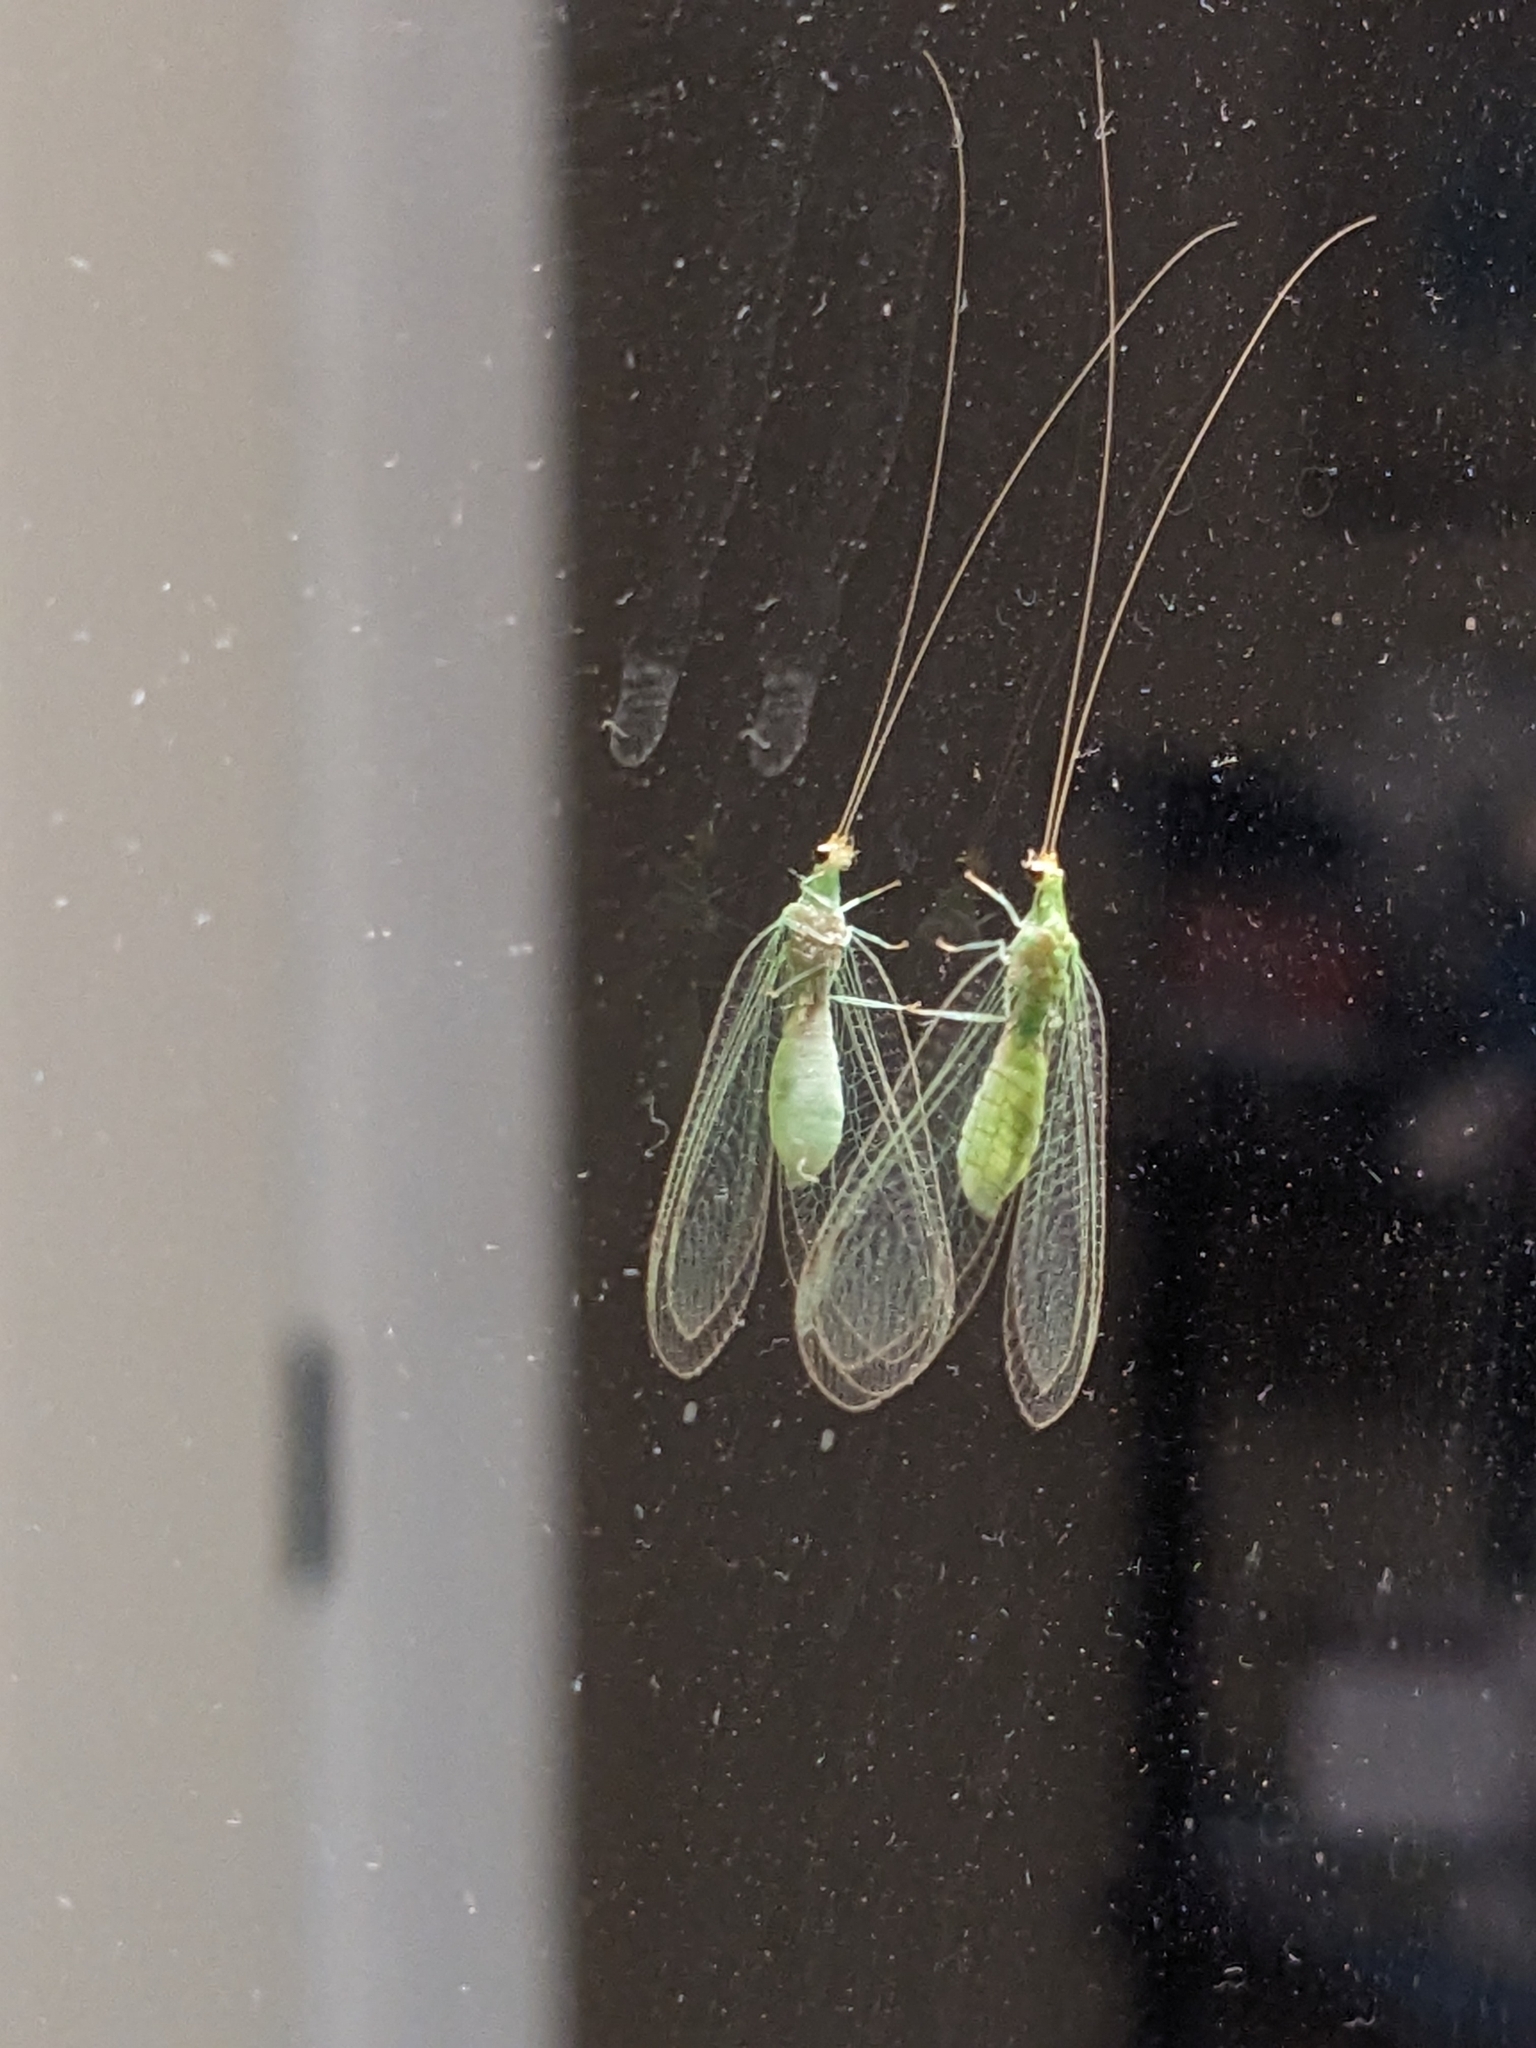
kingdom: Animalia
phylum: Arthropoda
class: Insecta
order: Neuroptera
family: Chrysopidae
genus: Leucochrysa
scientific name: Leucochrysa pavida
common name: Lichen-carrying green lacewing
